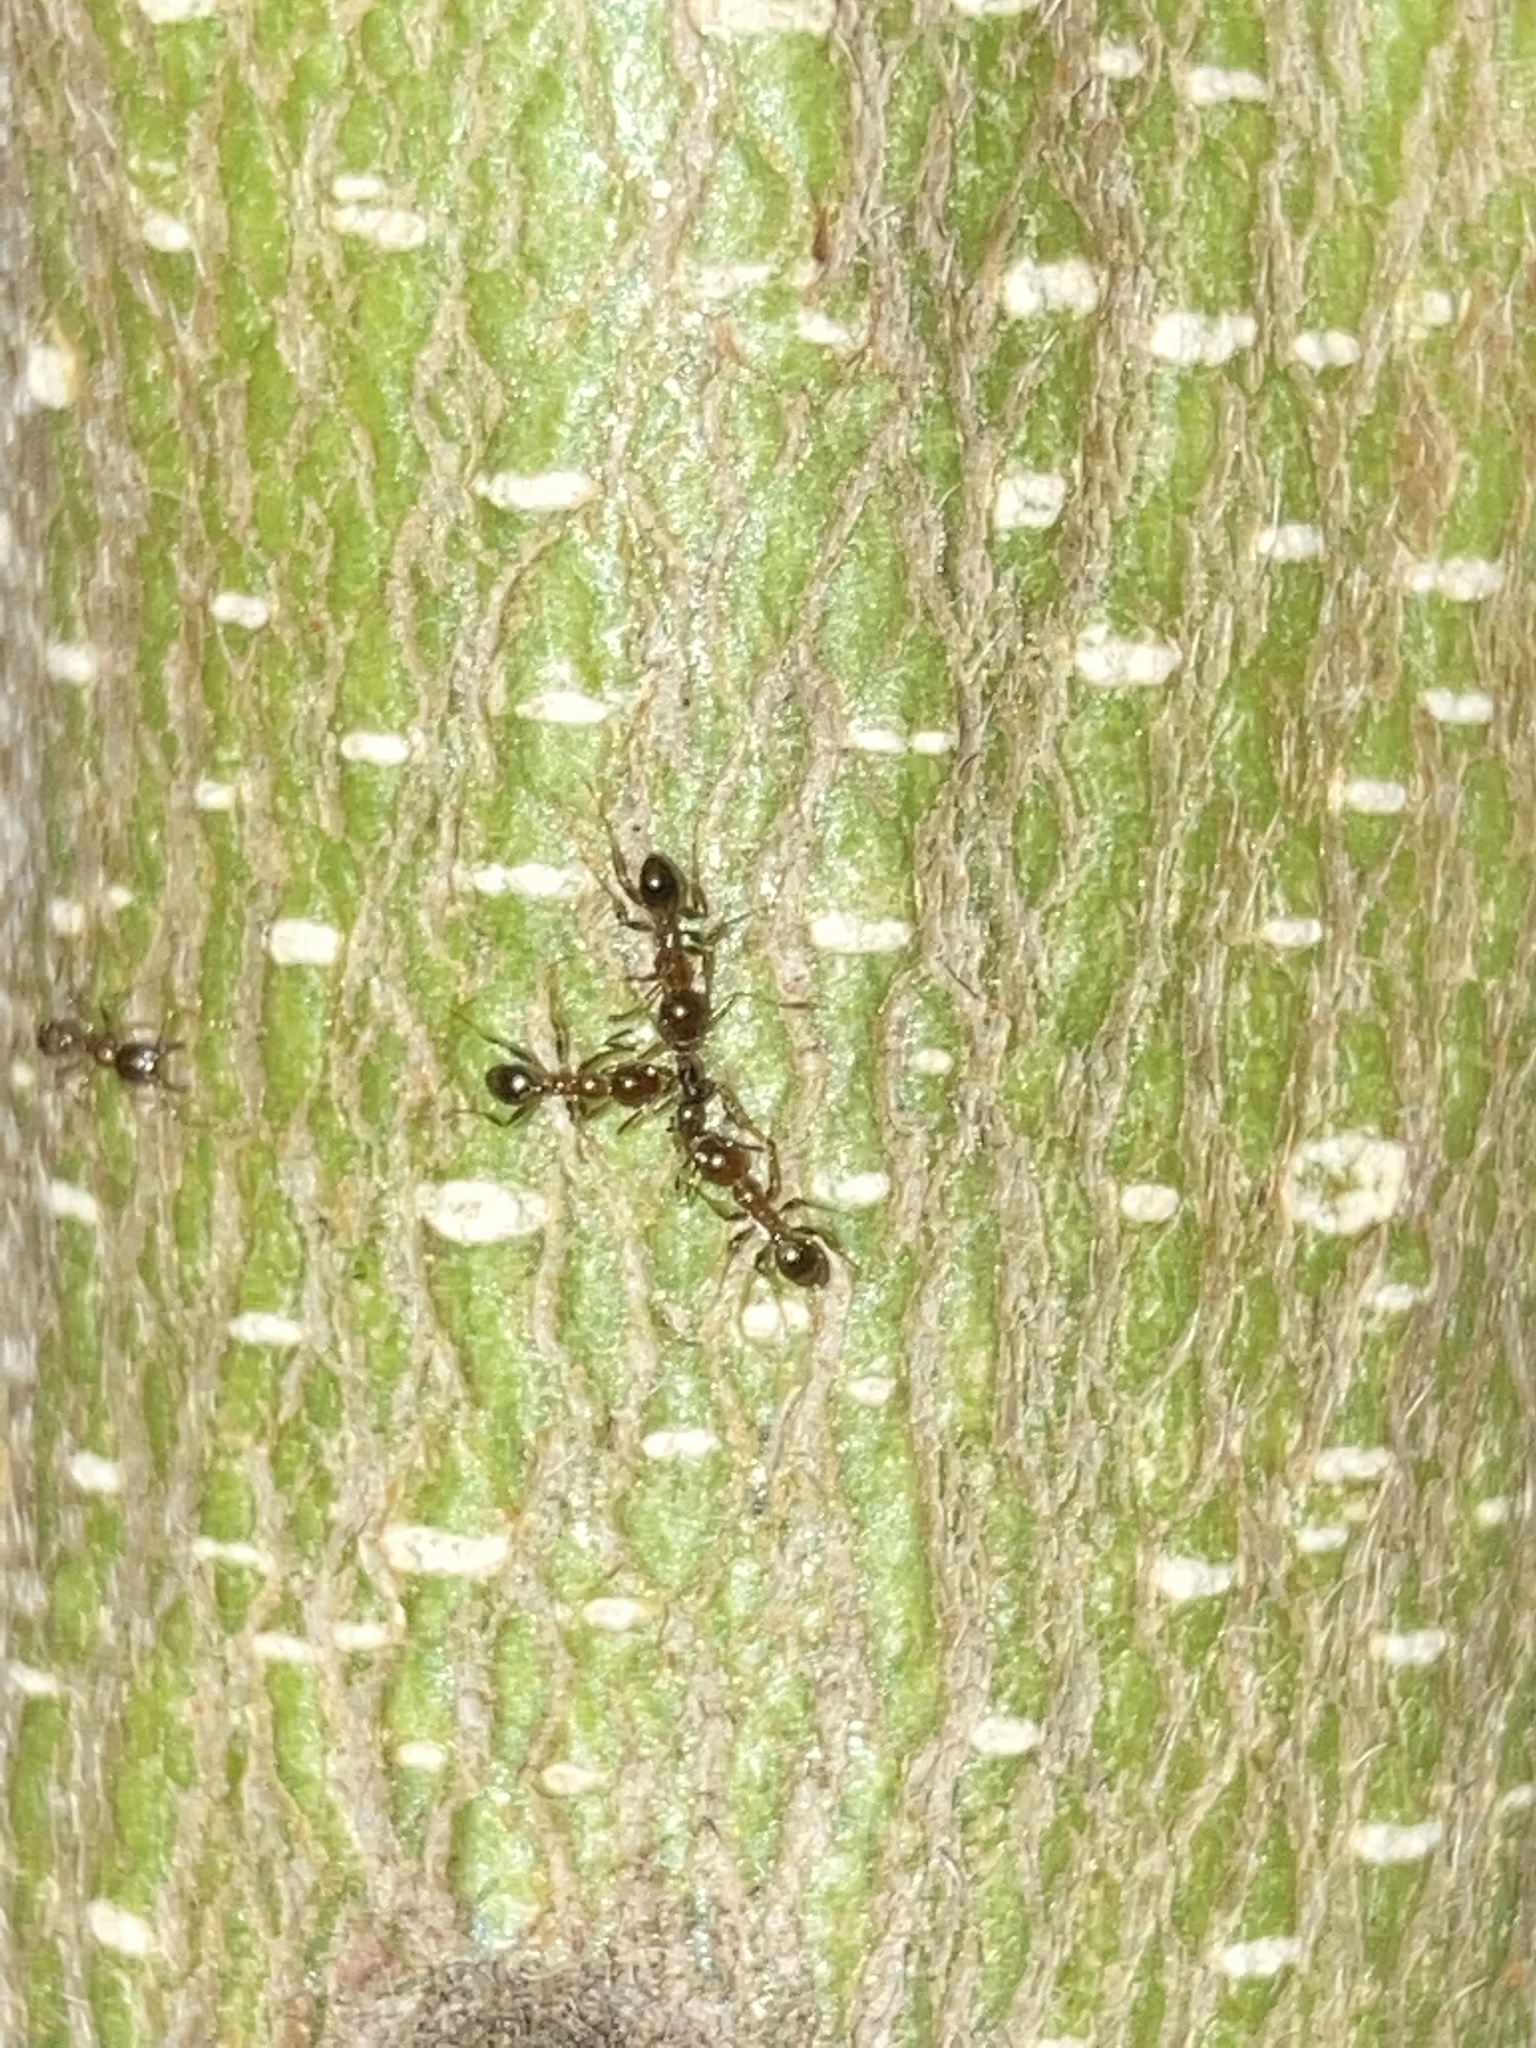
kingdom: Animalia
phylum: Arthropoda
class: Insecta
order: Hymenoptera
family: Formicidae
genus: Pheidole
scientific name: Pheidole megacephala
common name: Bigheaded ant
